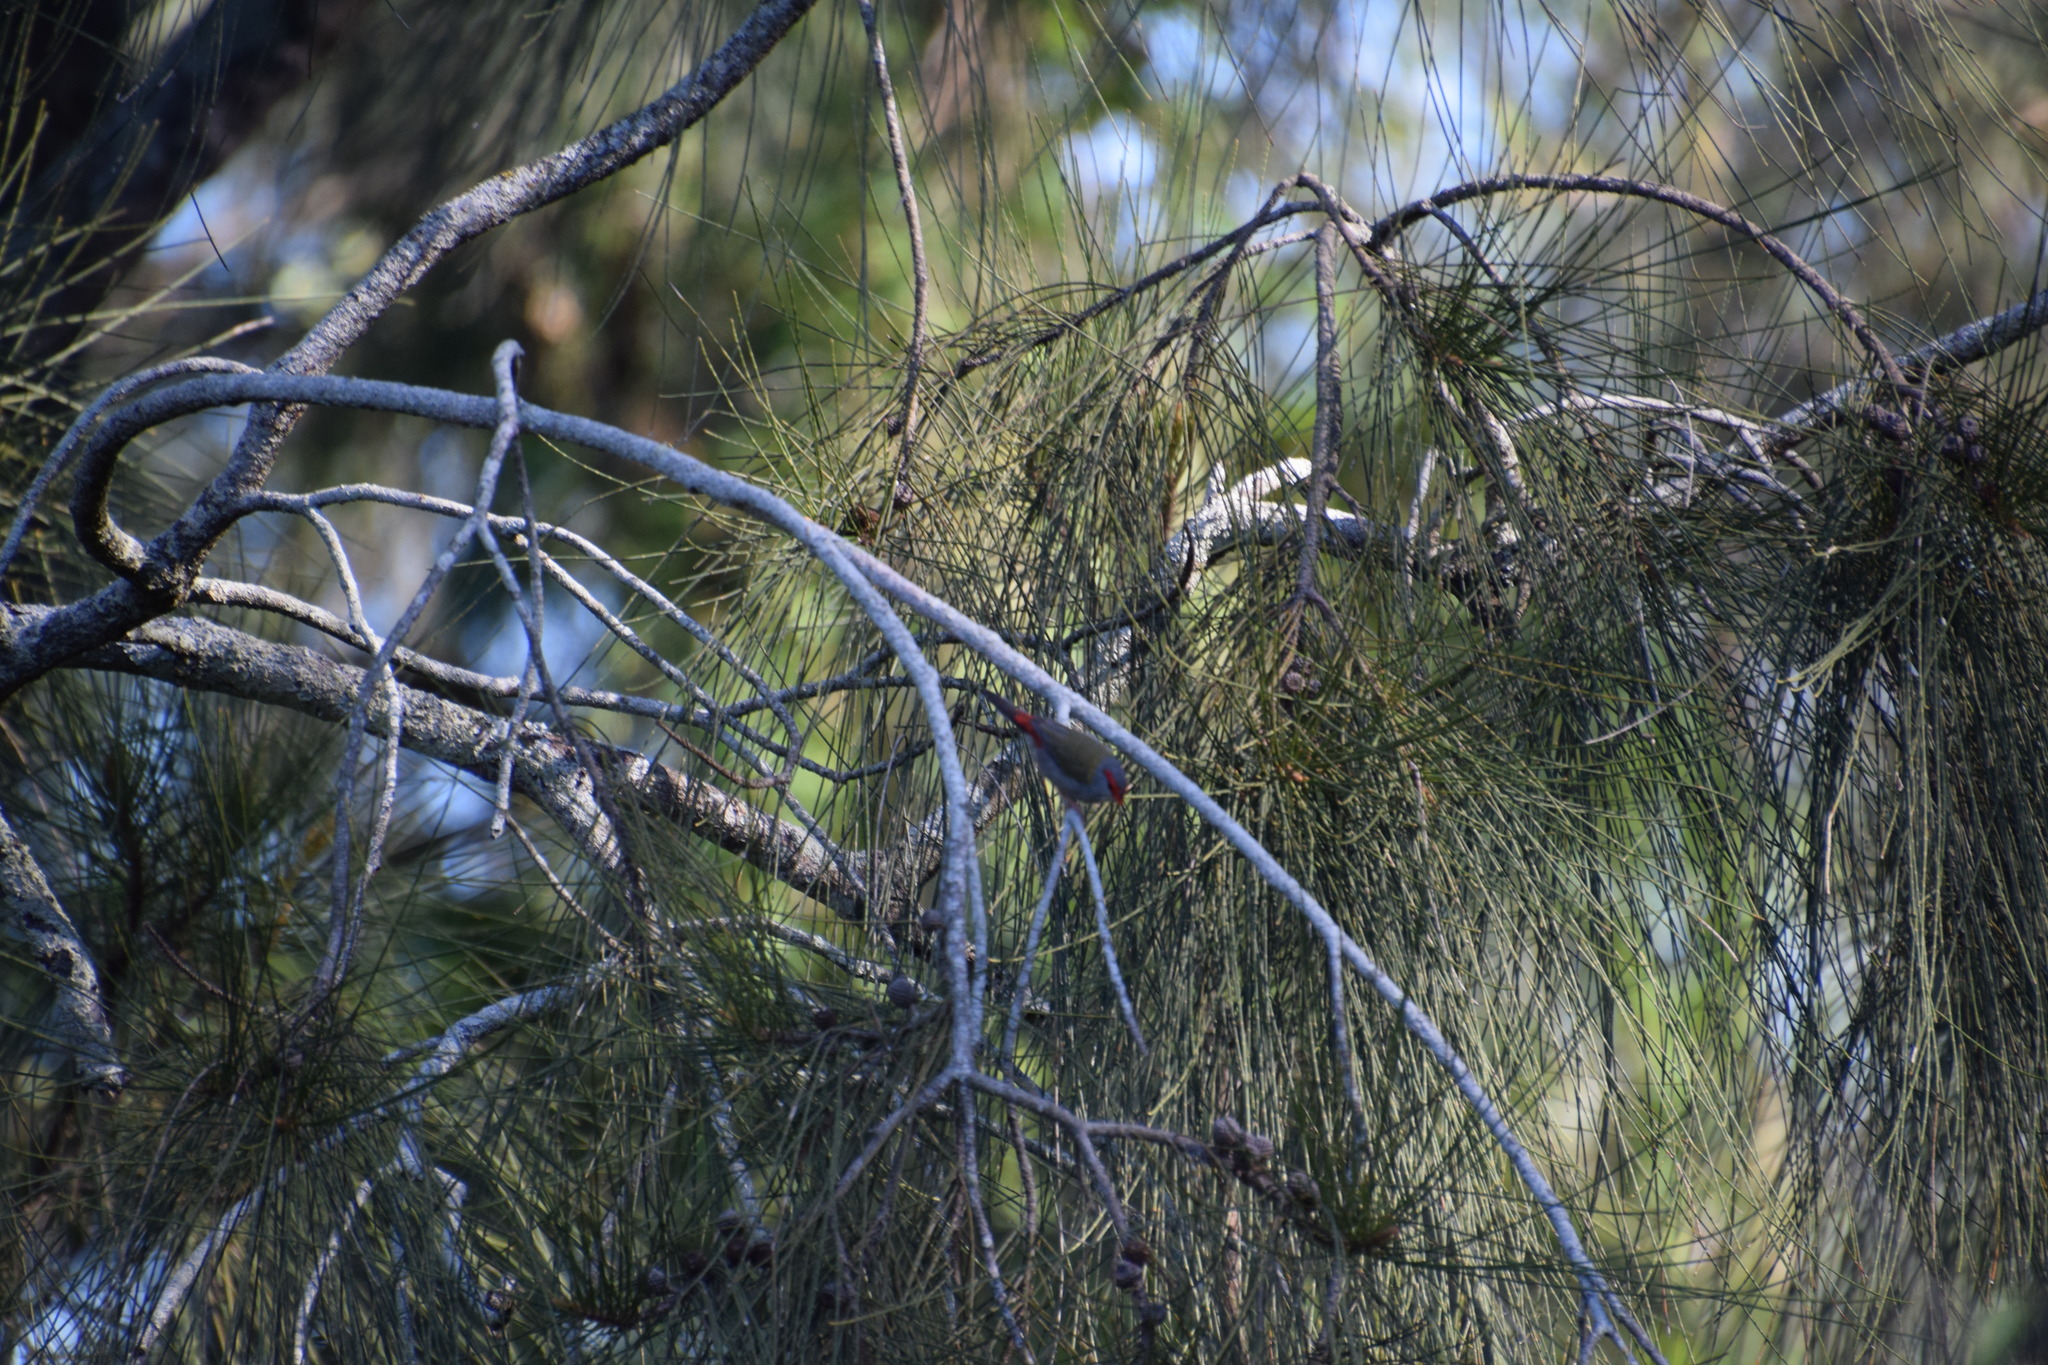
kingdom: Animalia
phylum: Chordata
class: Aves
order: Passeriformes
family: Estrildidae
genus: Neochmia
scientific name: Neochmia temporalis
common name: Red-browed finch
